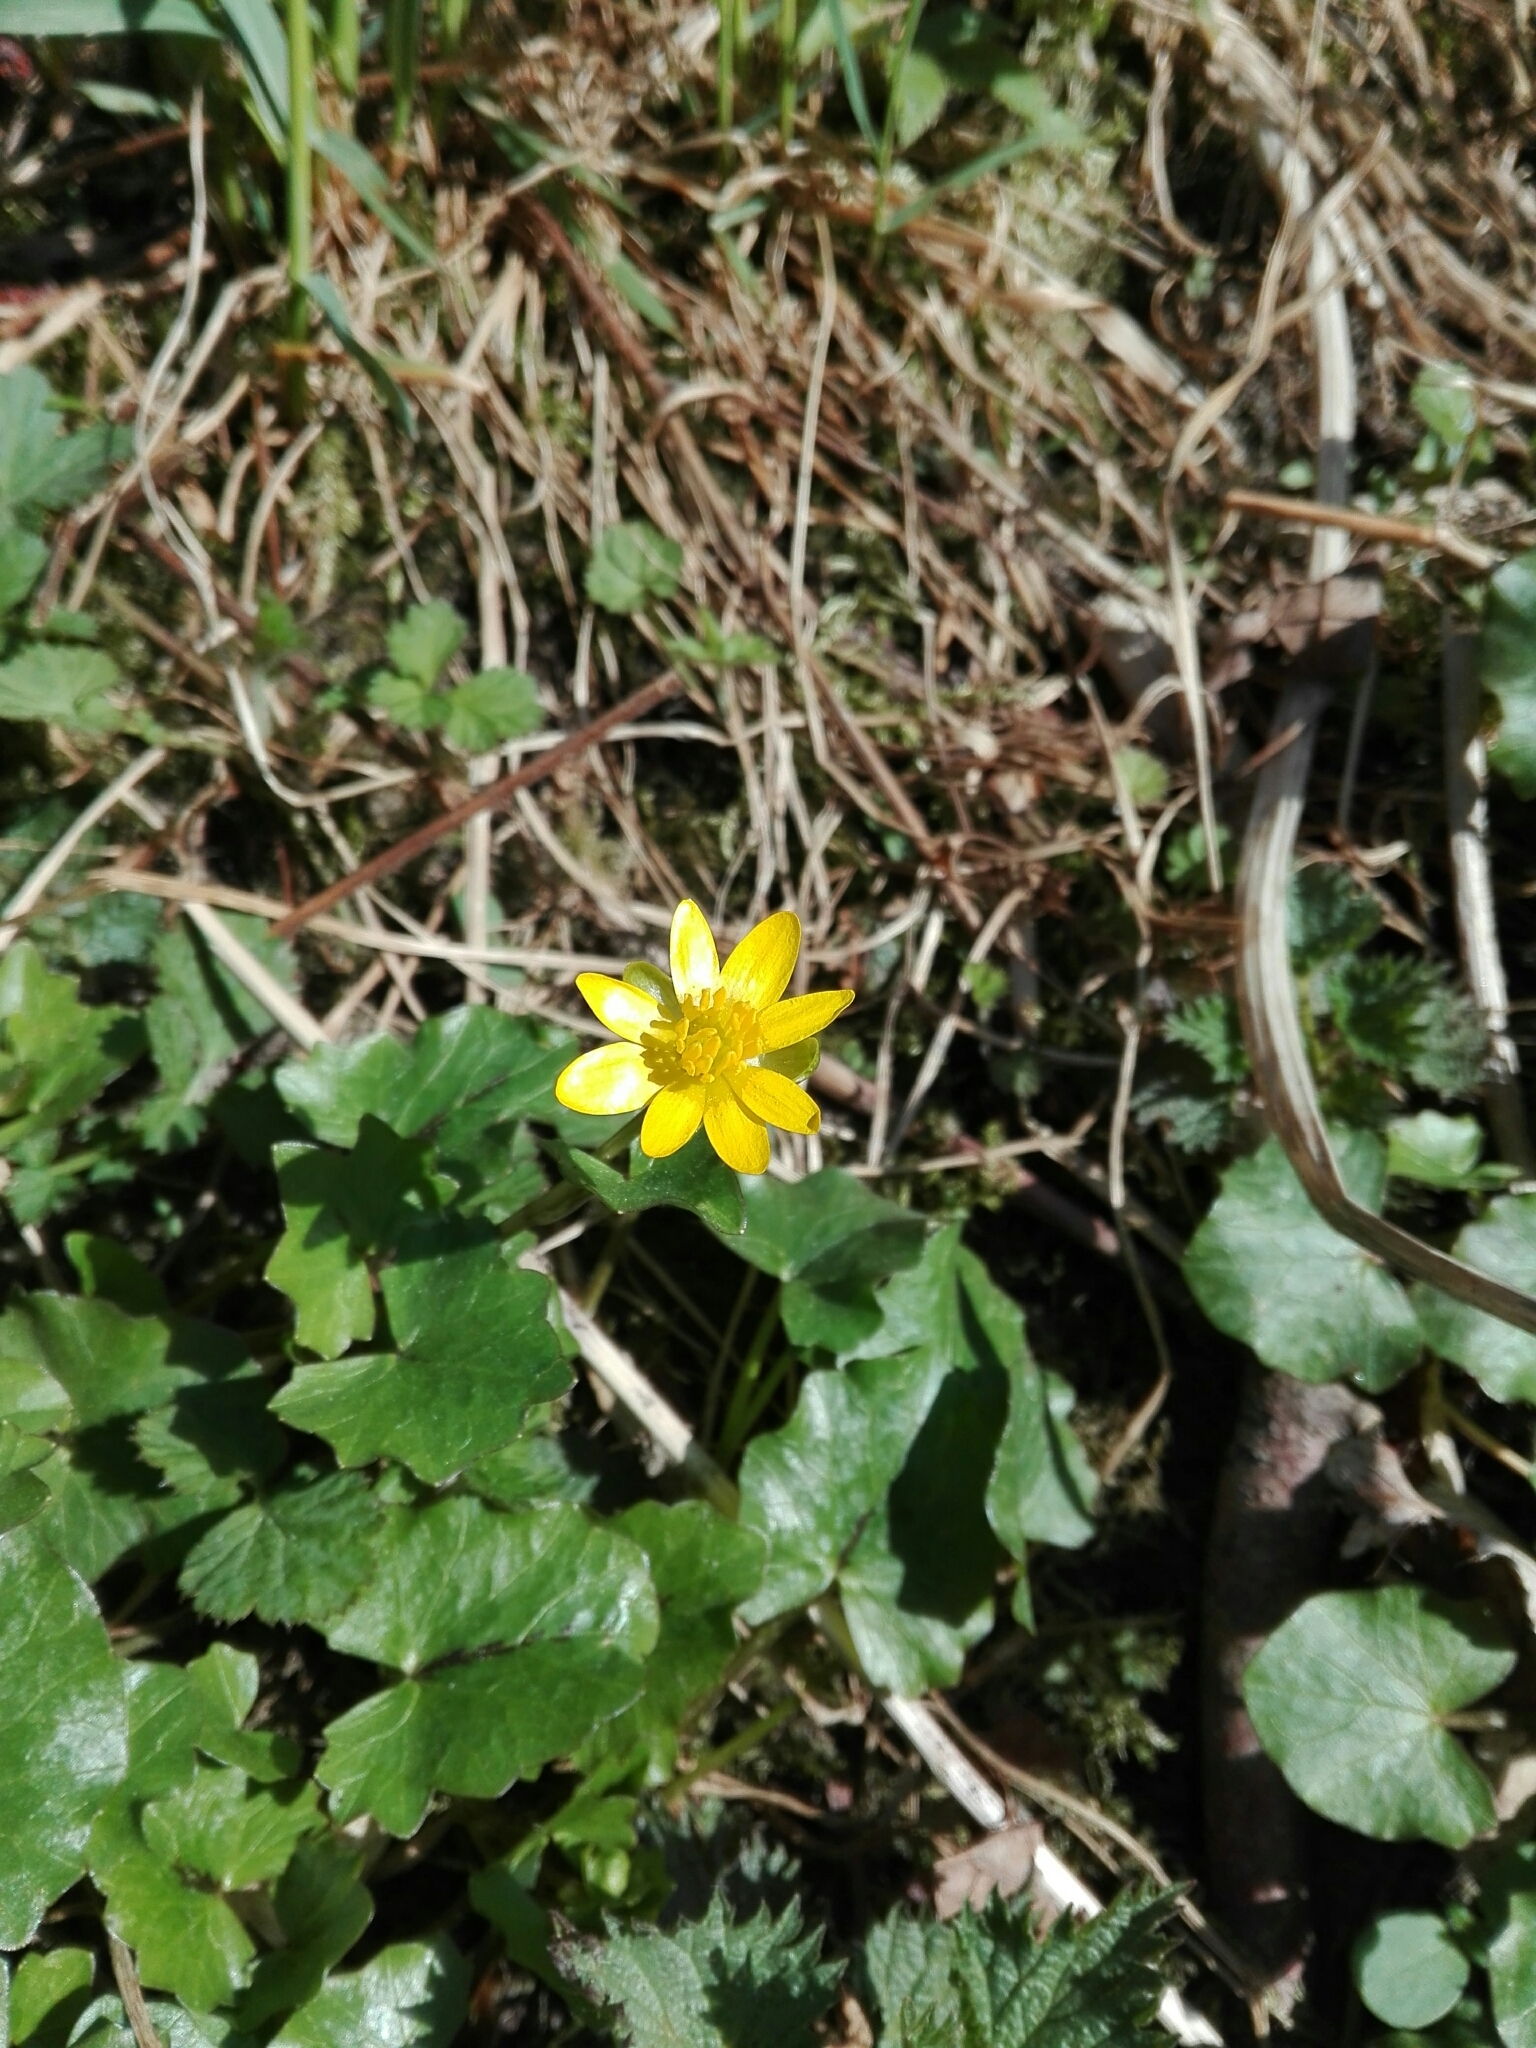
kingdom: Plantae
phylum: Tracheophyta
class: Magnoliopsida
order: Ranunculales
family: Ranunculaceae
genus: Ficaria
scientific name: Ficaria verna
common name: Lesser celandine
